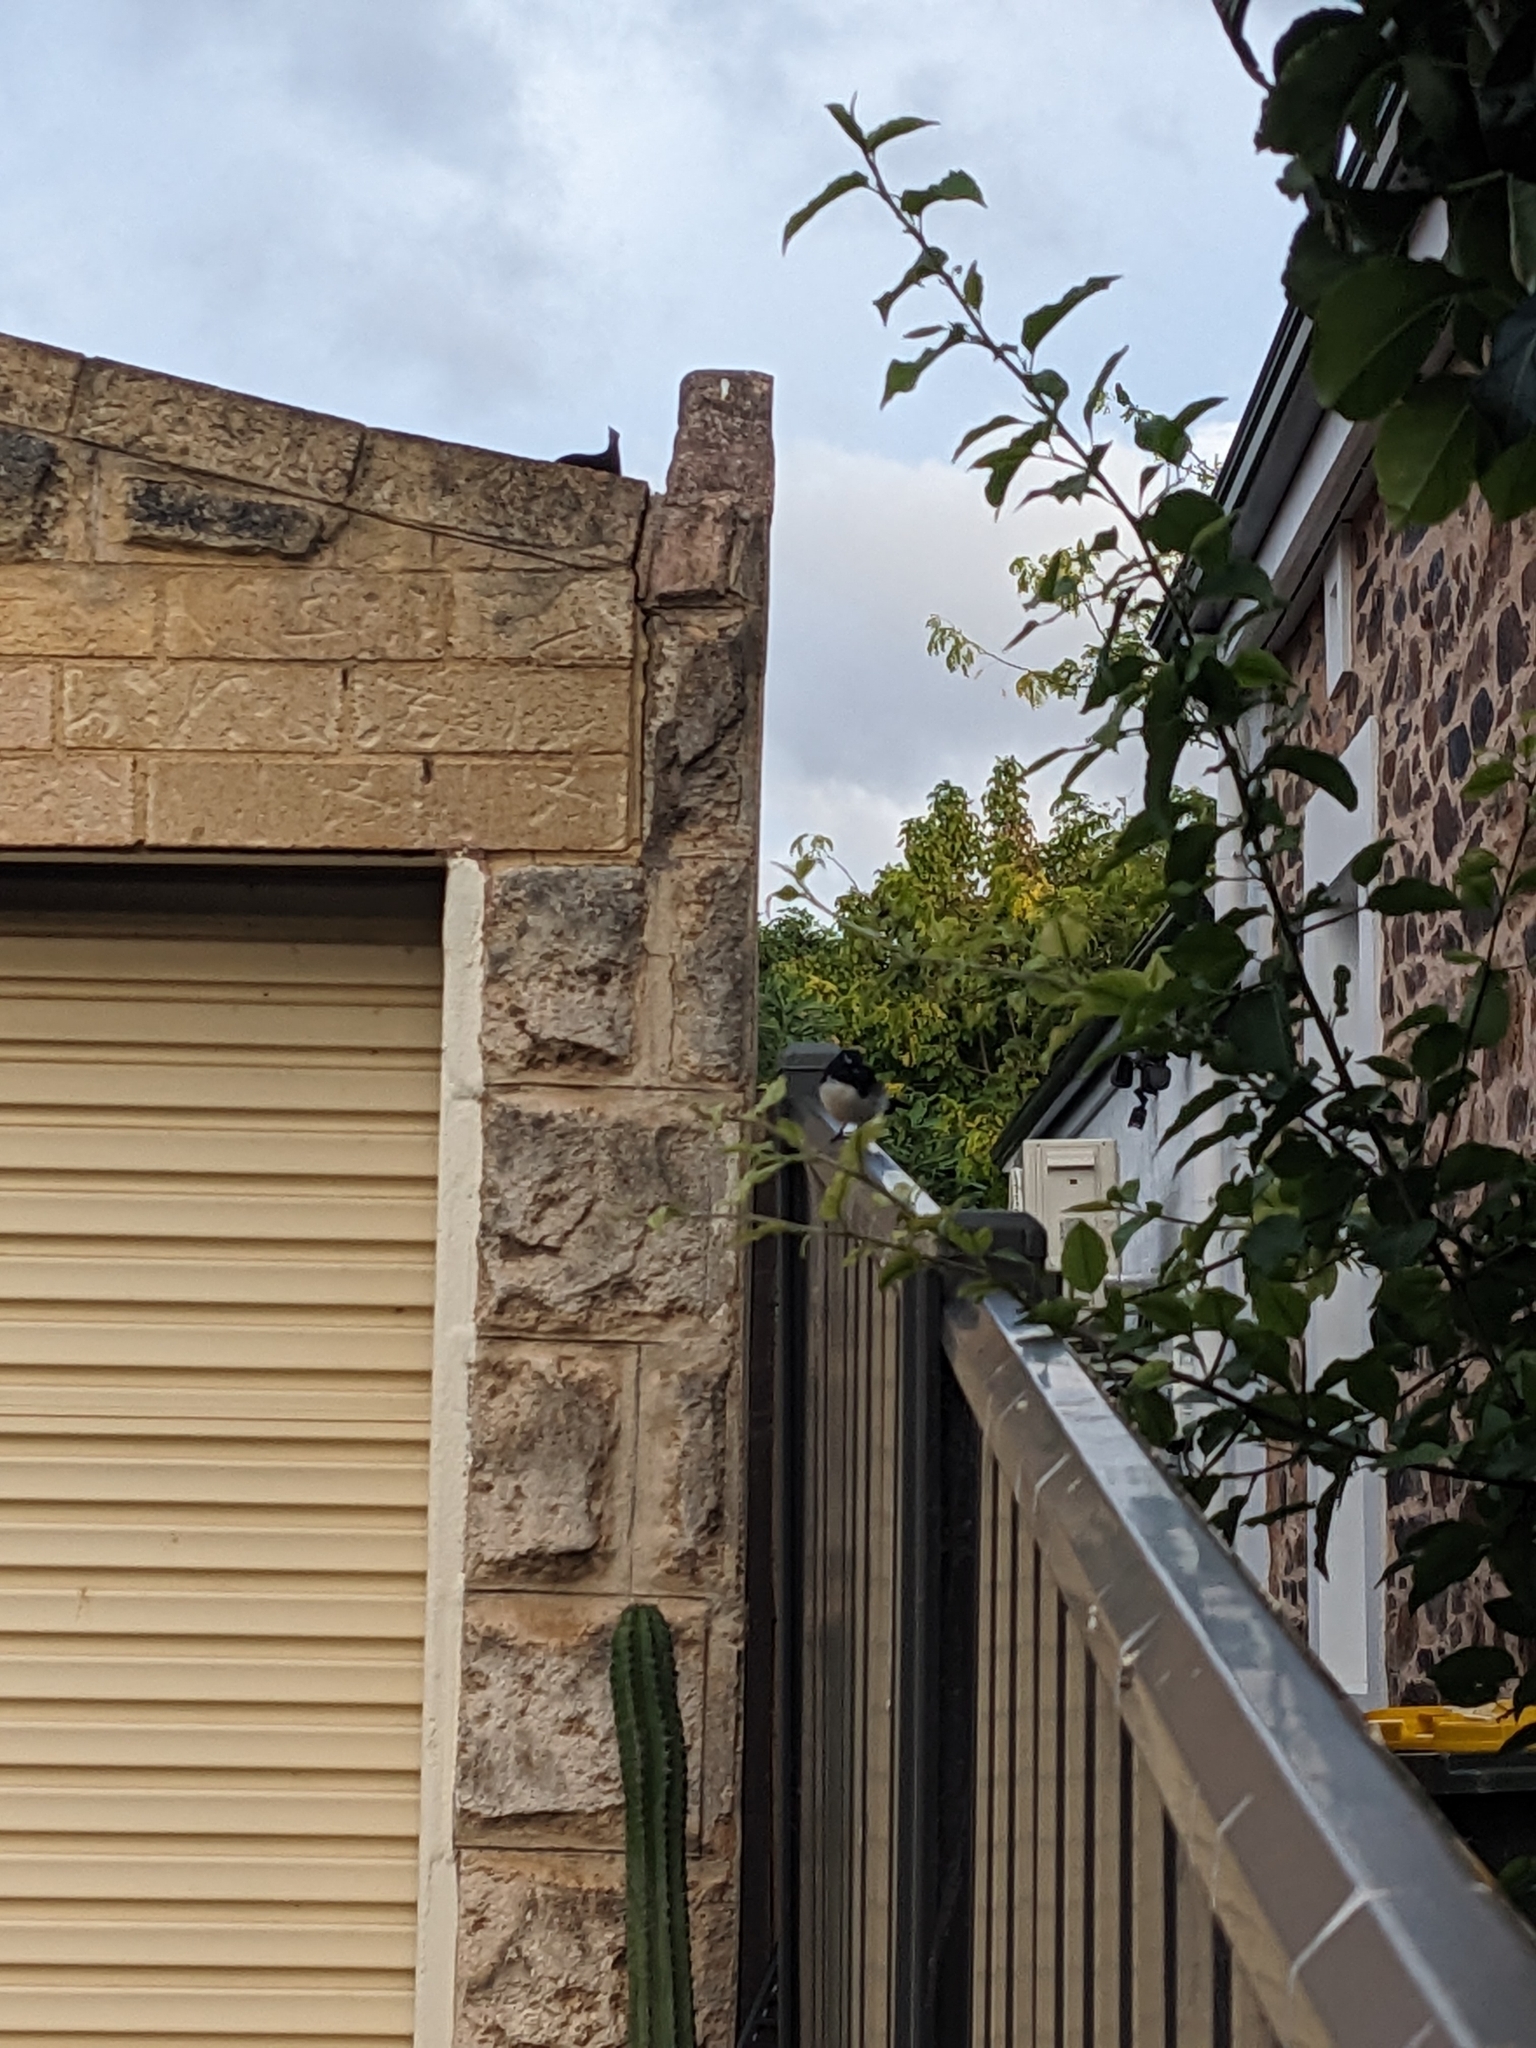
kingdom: Animalia
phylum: Chordata
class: Aves
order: Passeriformes
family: Rhipiduridae
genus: Rhipidura
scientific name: Rhipidura leucophrys
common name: Willie wagtail
